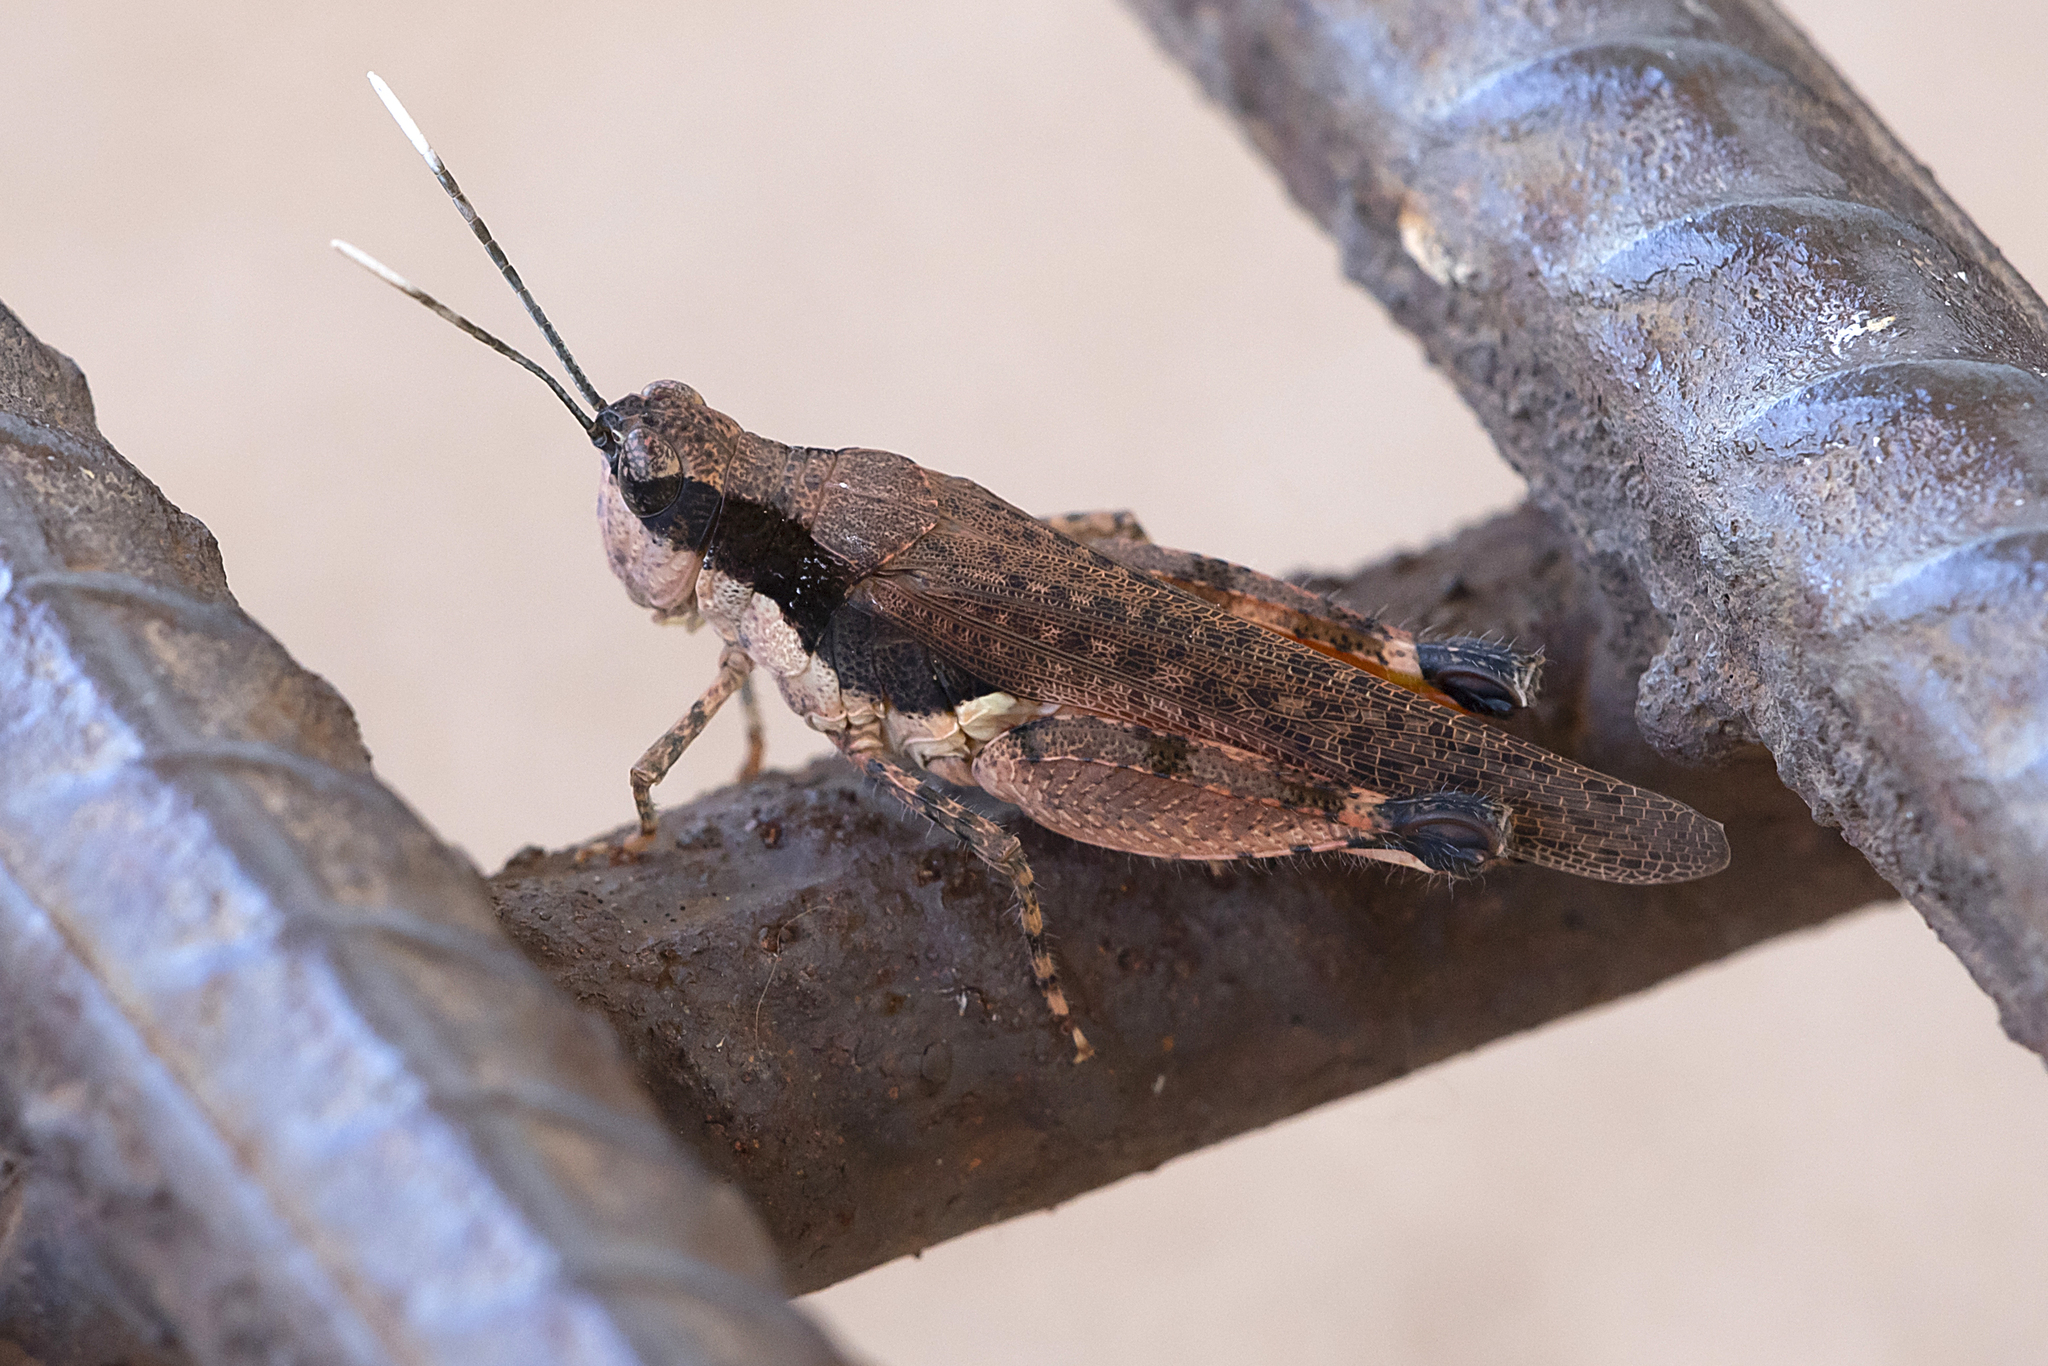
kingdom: Animalia
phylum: Arthropoda
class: Insecta
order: Orthoptera
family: Acrididae
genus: Perbellia
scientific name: Perbellia picta
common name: White-tipped perbellia
